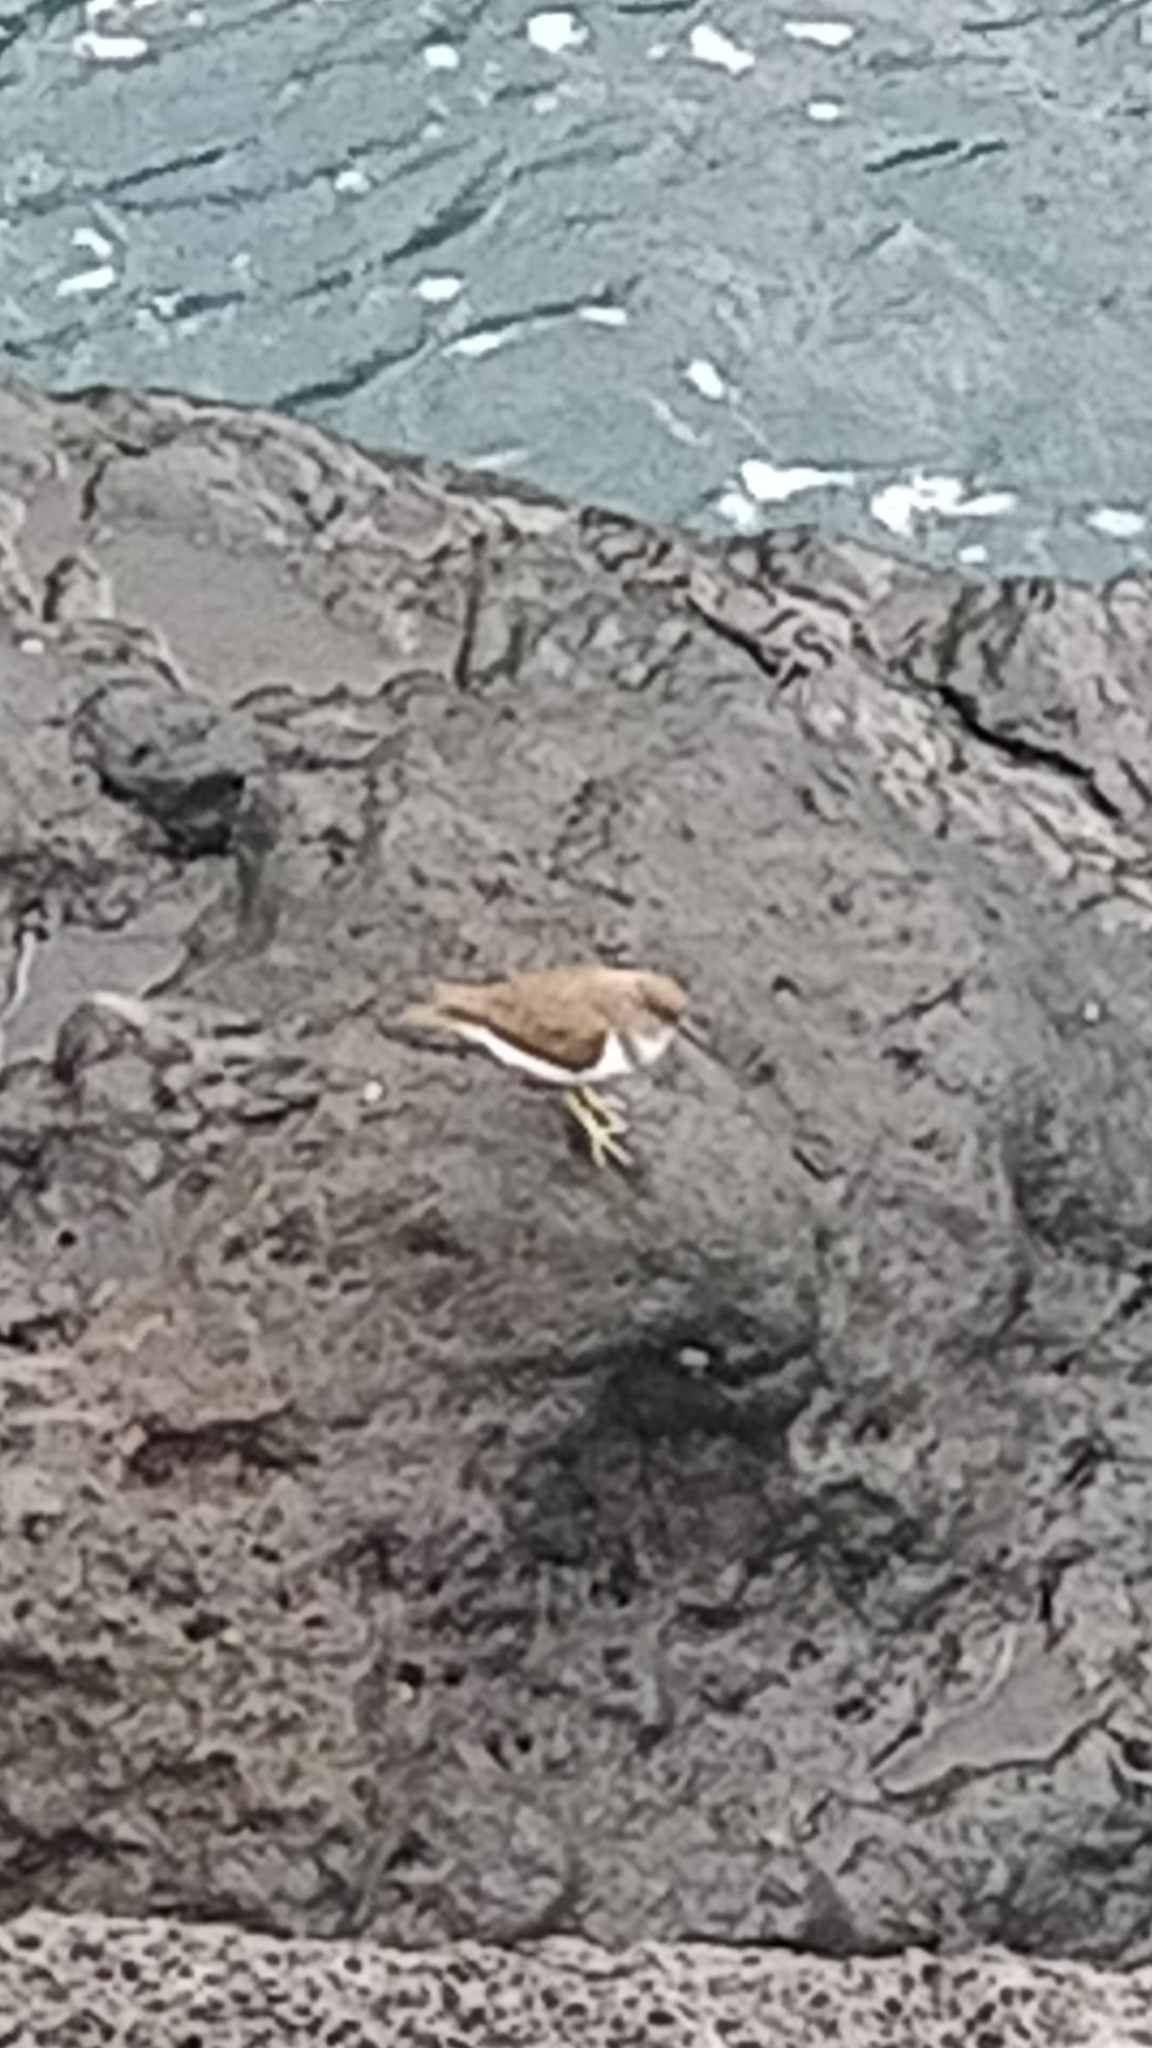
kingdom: Animalia
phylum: Chordata
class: Aves
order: Charadriiformes
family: Scolopacidae
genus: Actitis
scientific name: Actitis hypoleucos
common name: Common sandpiper
